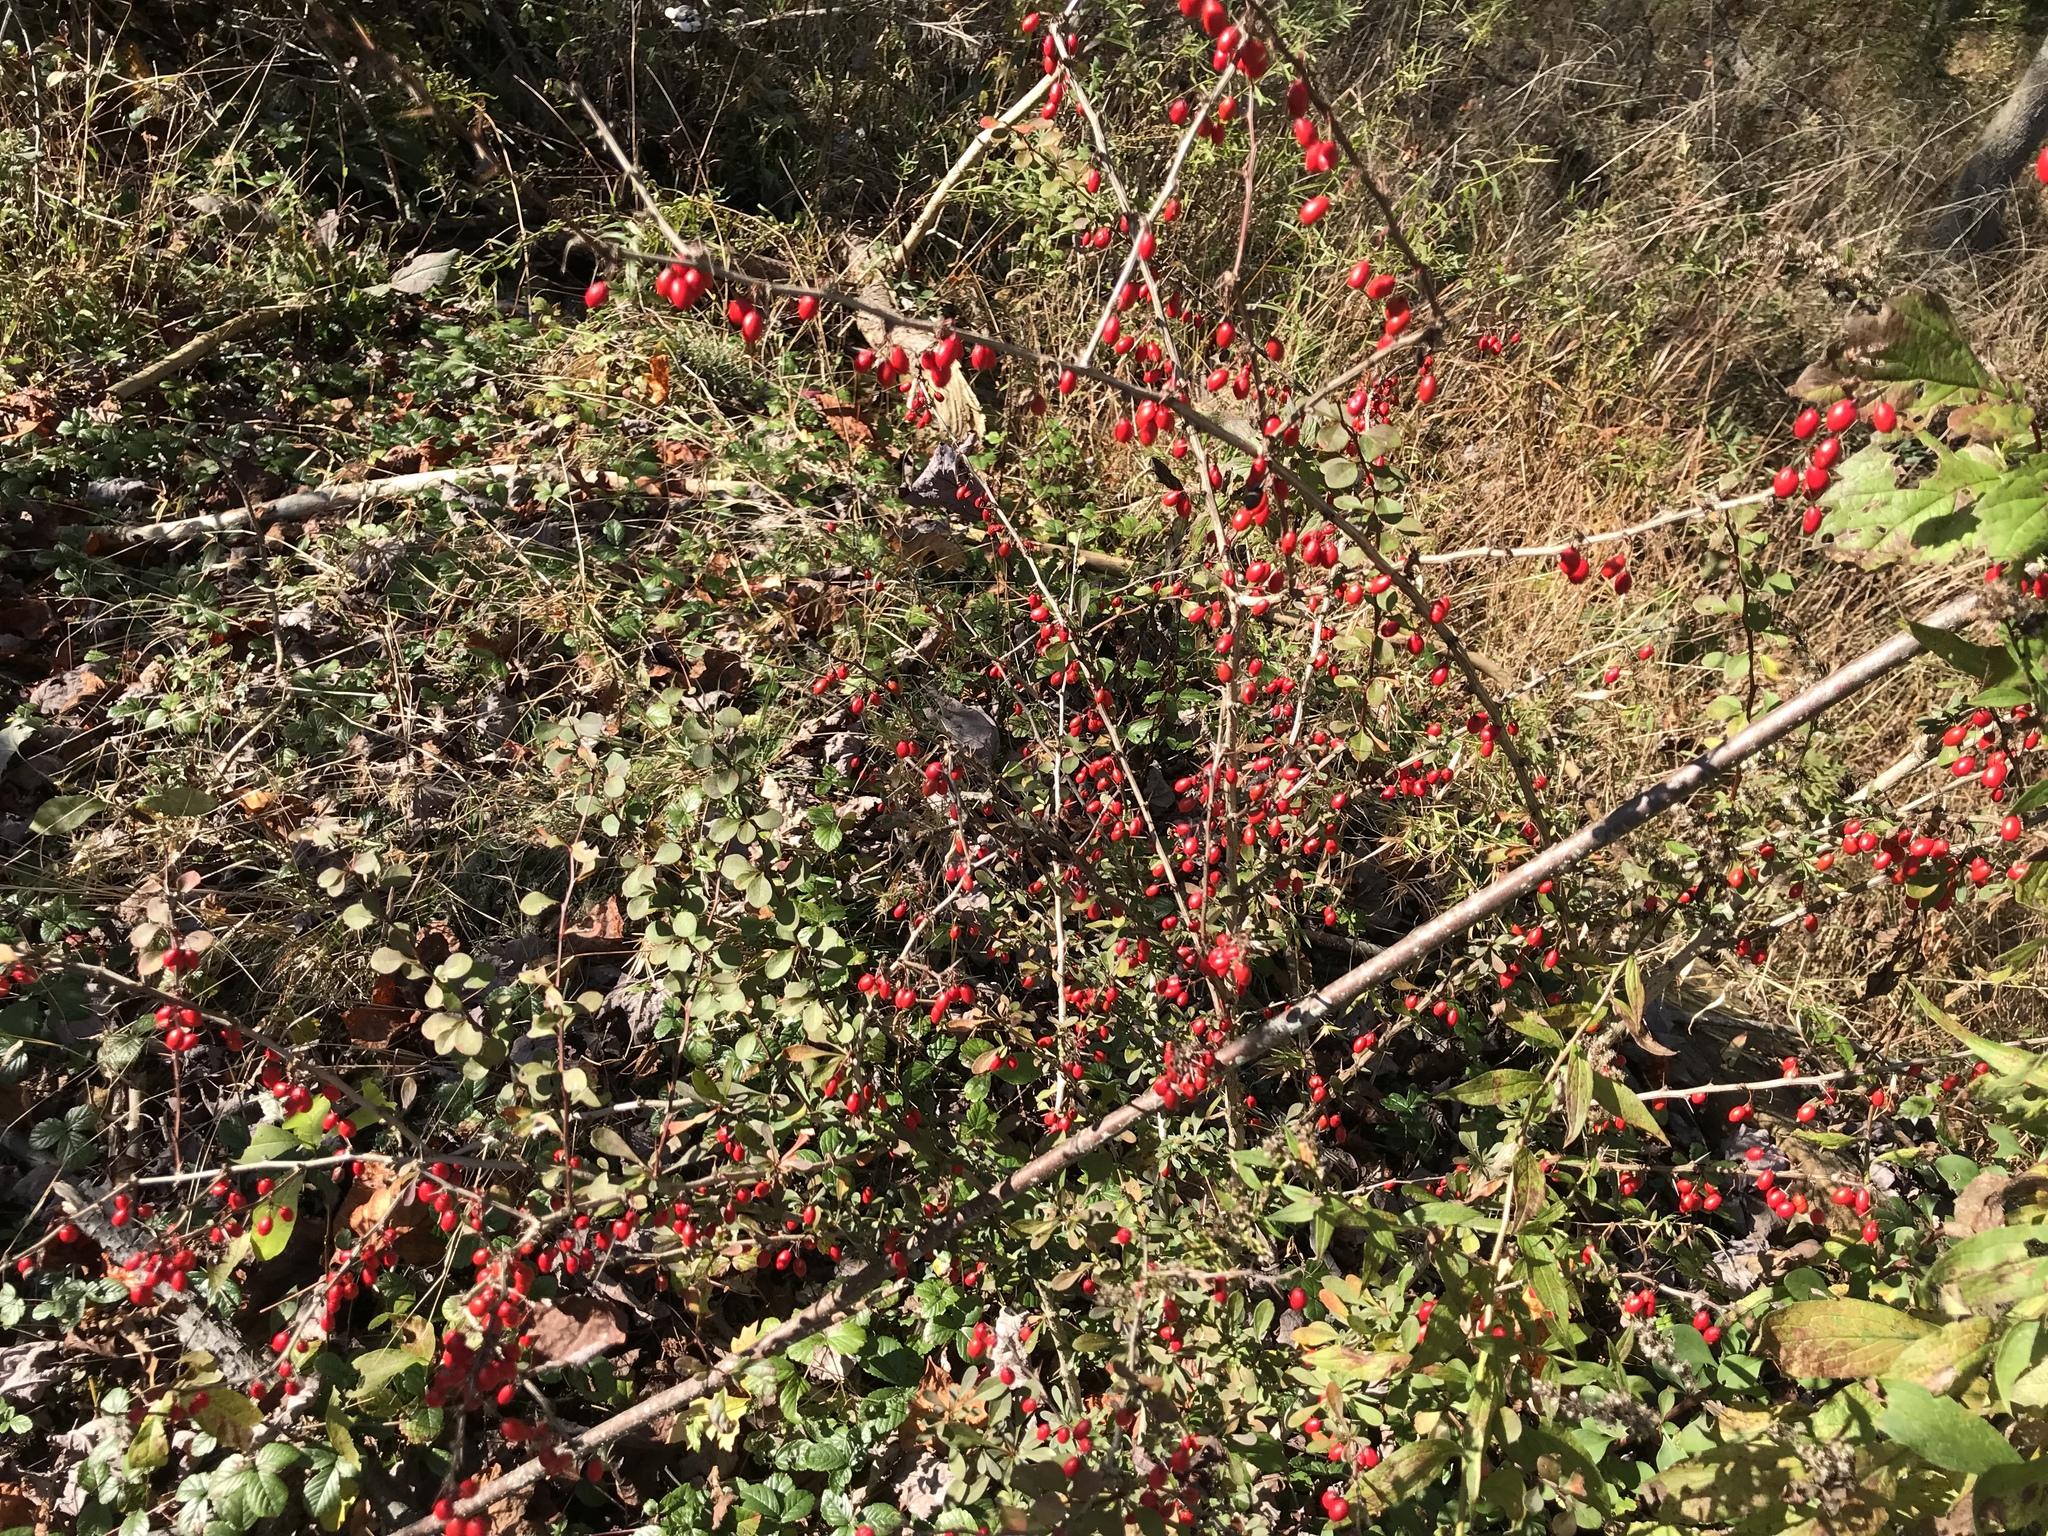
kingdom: Plantae
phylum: Tracheophyta
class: Magnoliopsida
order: Ranunculales
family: Berberidaceae
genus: Berberis
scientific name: Berberis thunbergii
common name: Japanese barberry
